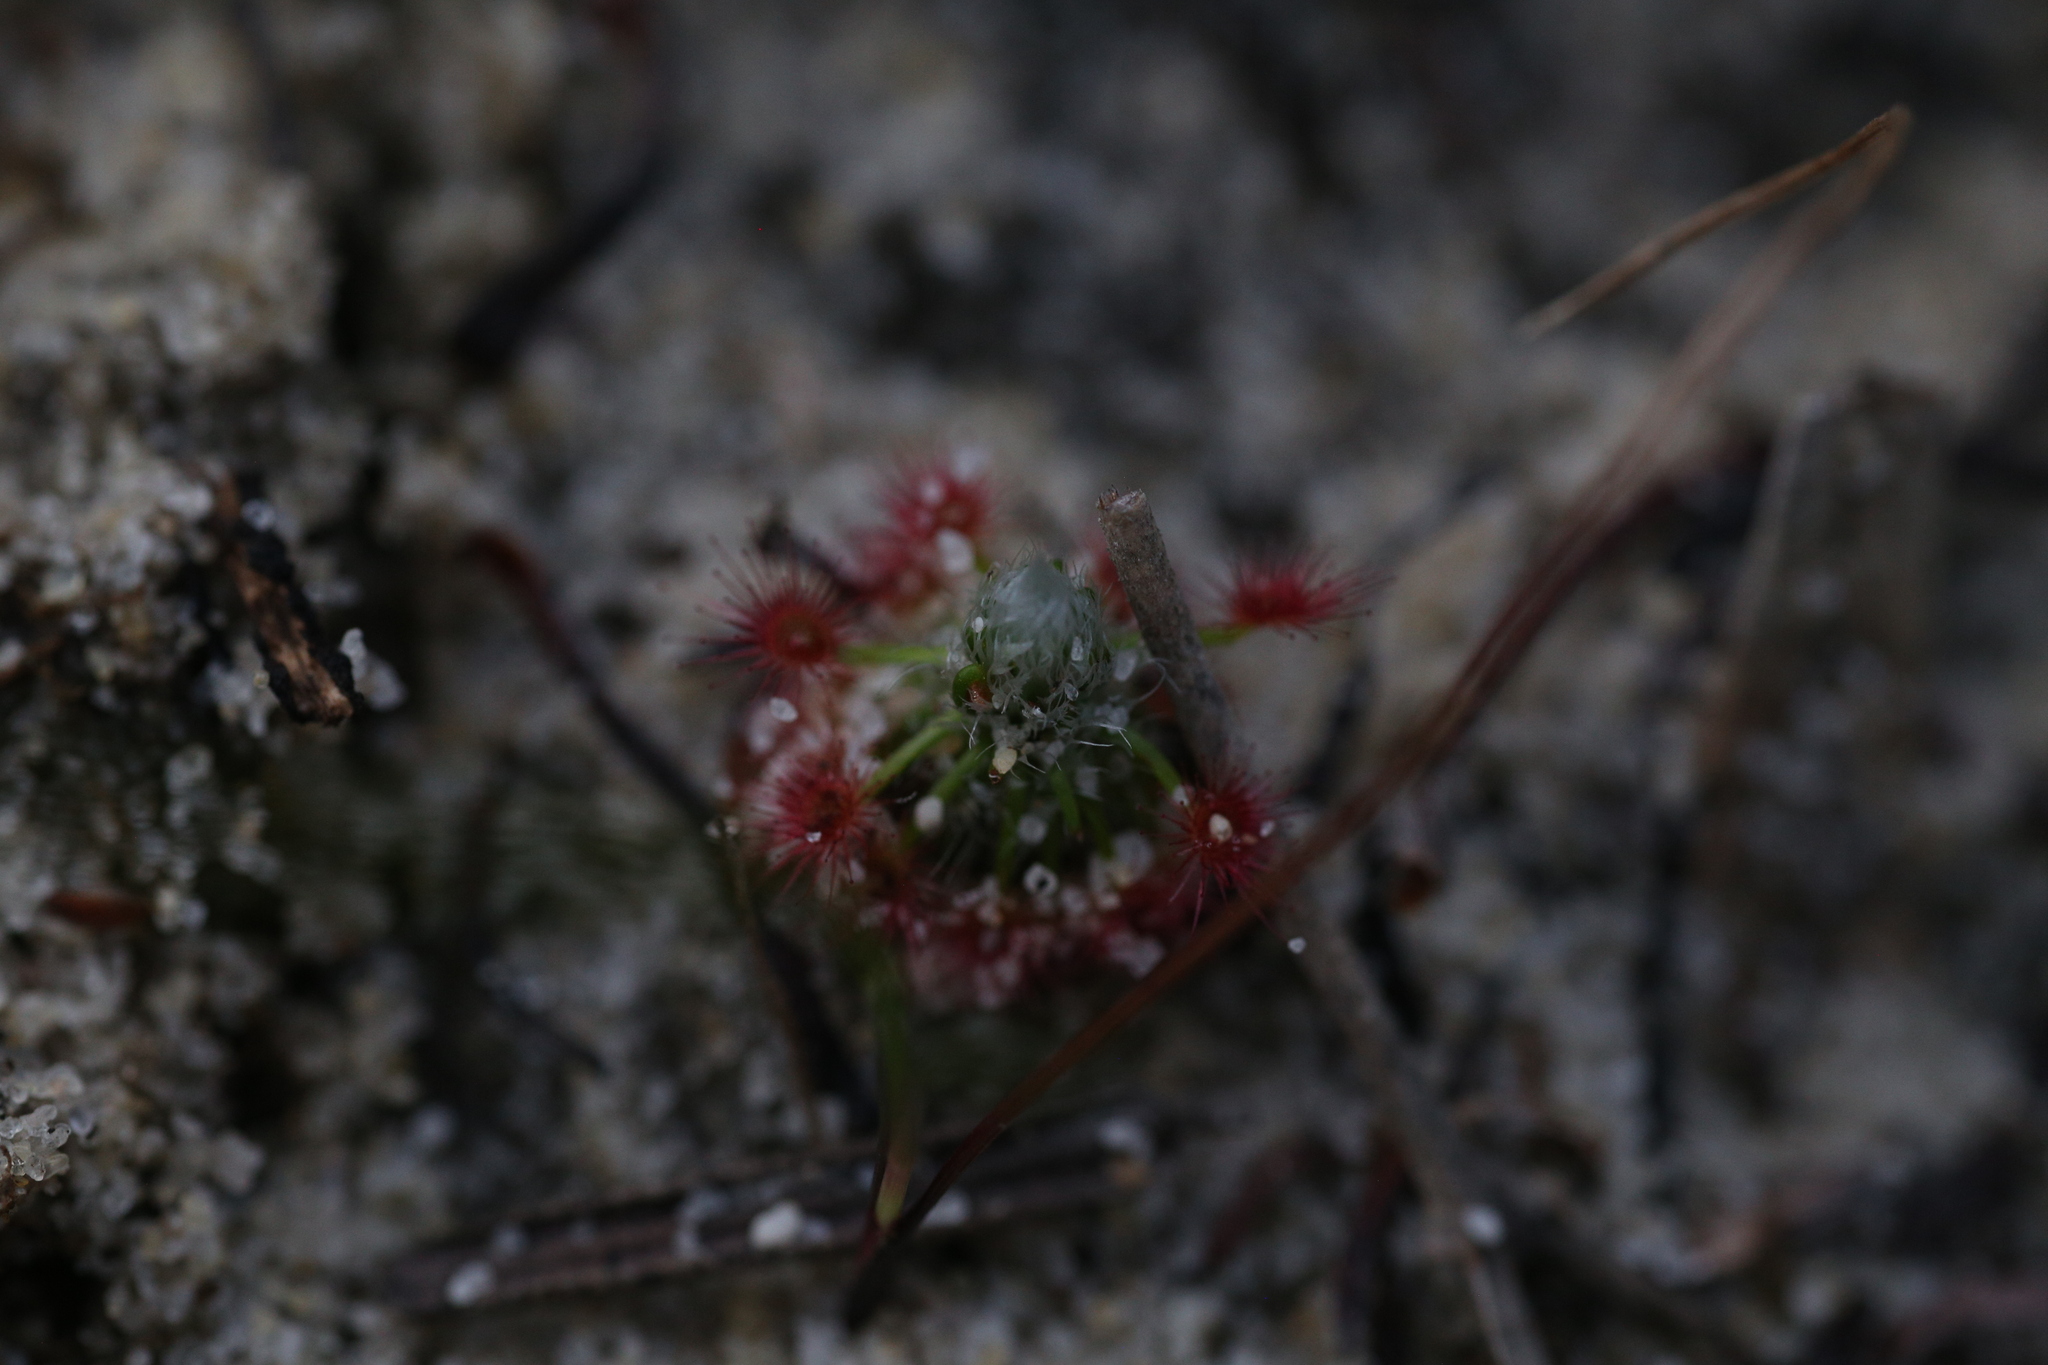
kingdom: Plantae
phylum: Tracheophyta
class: Magnoliopsida
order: Caryophyllales
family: Droseraceae
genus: Drosera
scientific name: Drosera paleacea
